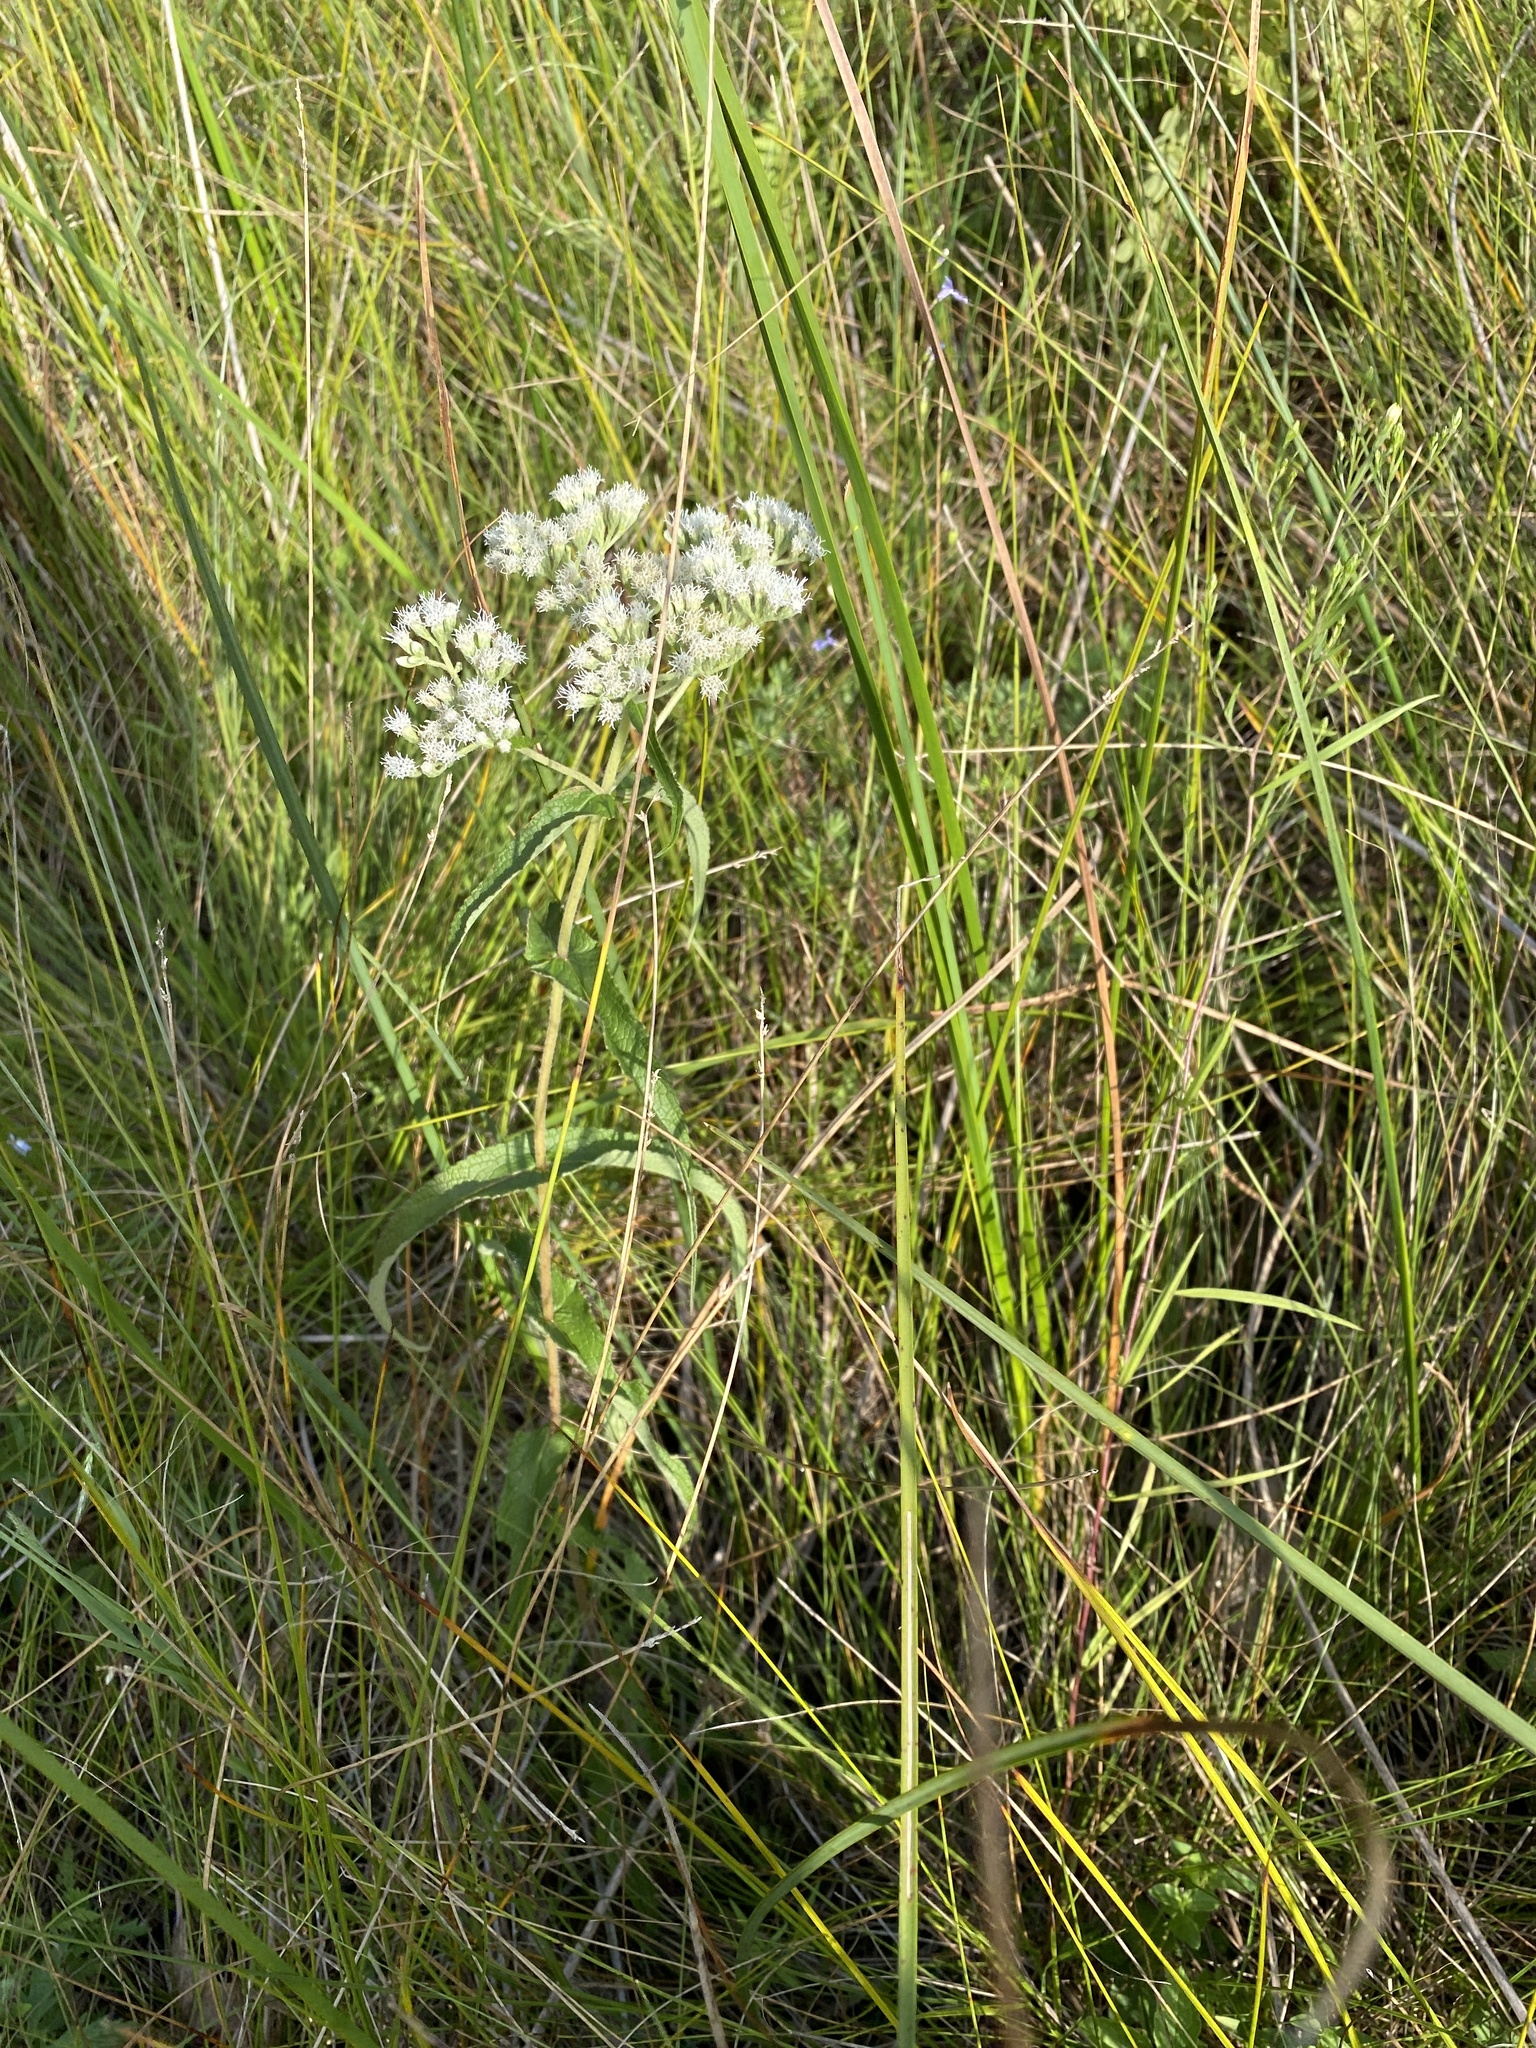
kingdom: Plantae
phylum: Tracheophyta
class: Magnoliopsida
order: Asterales
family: Asteraceae
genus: Eupatorium
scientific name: Eupatorium perfoliatum
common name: Boneset
